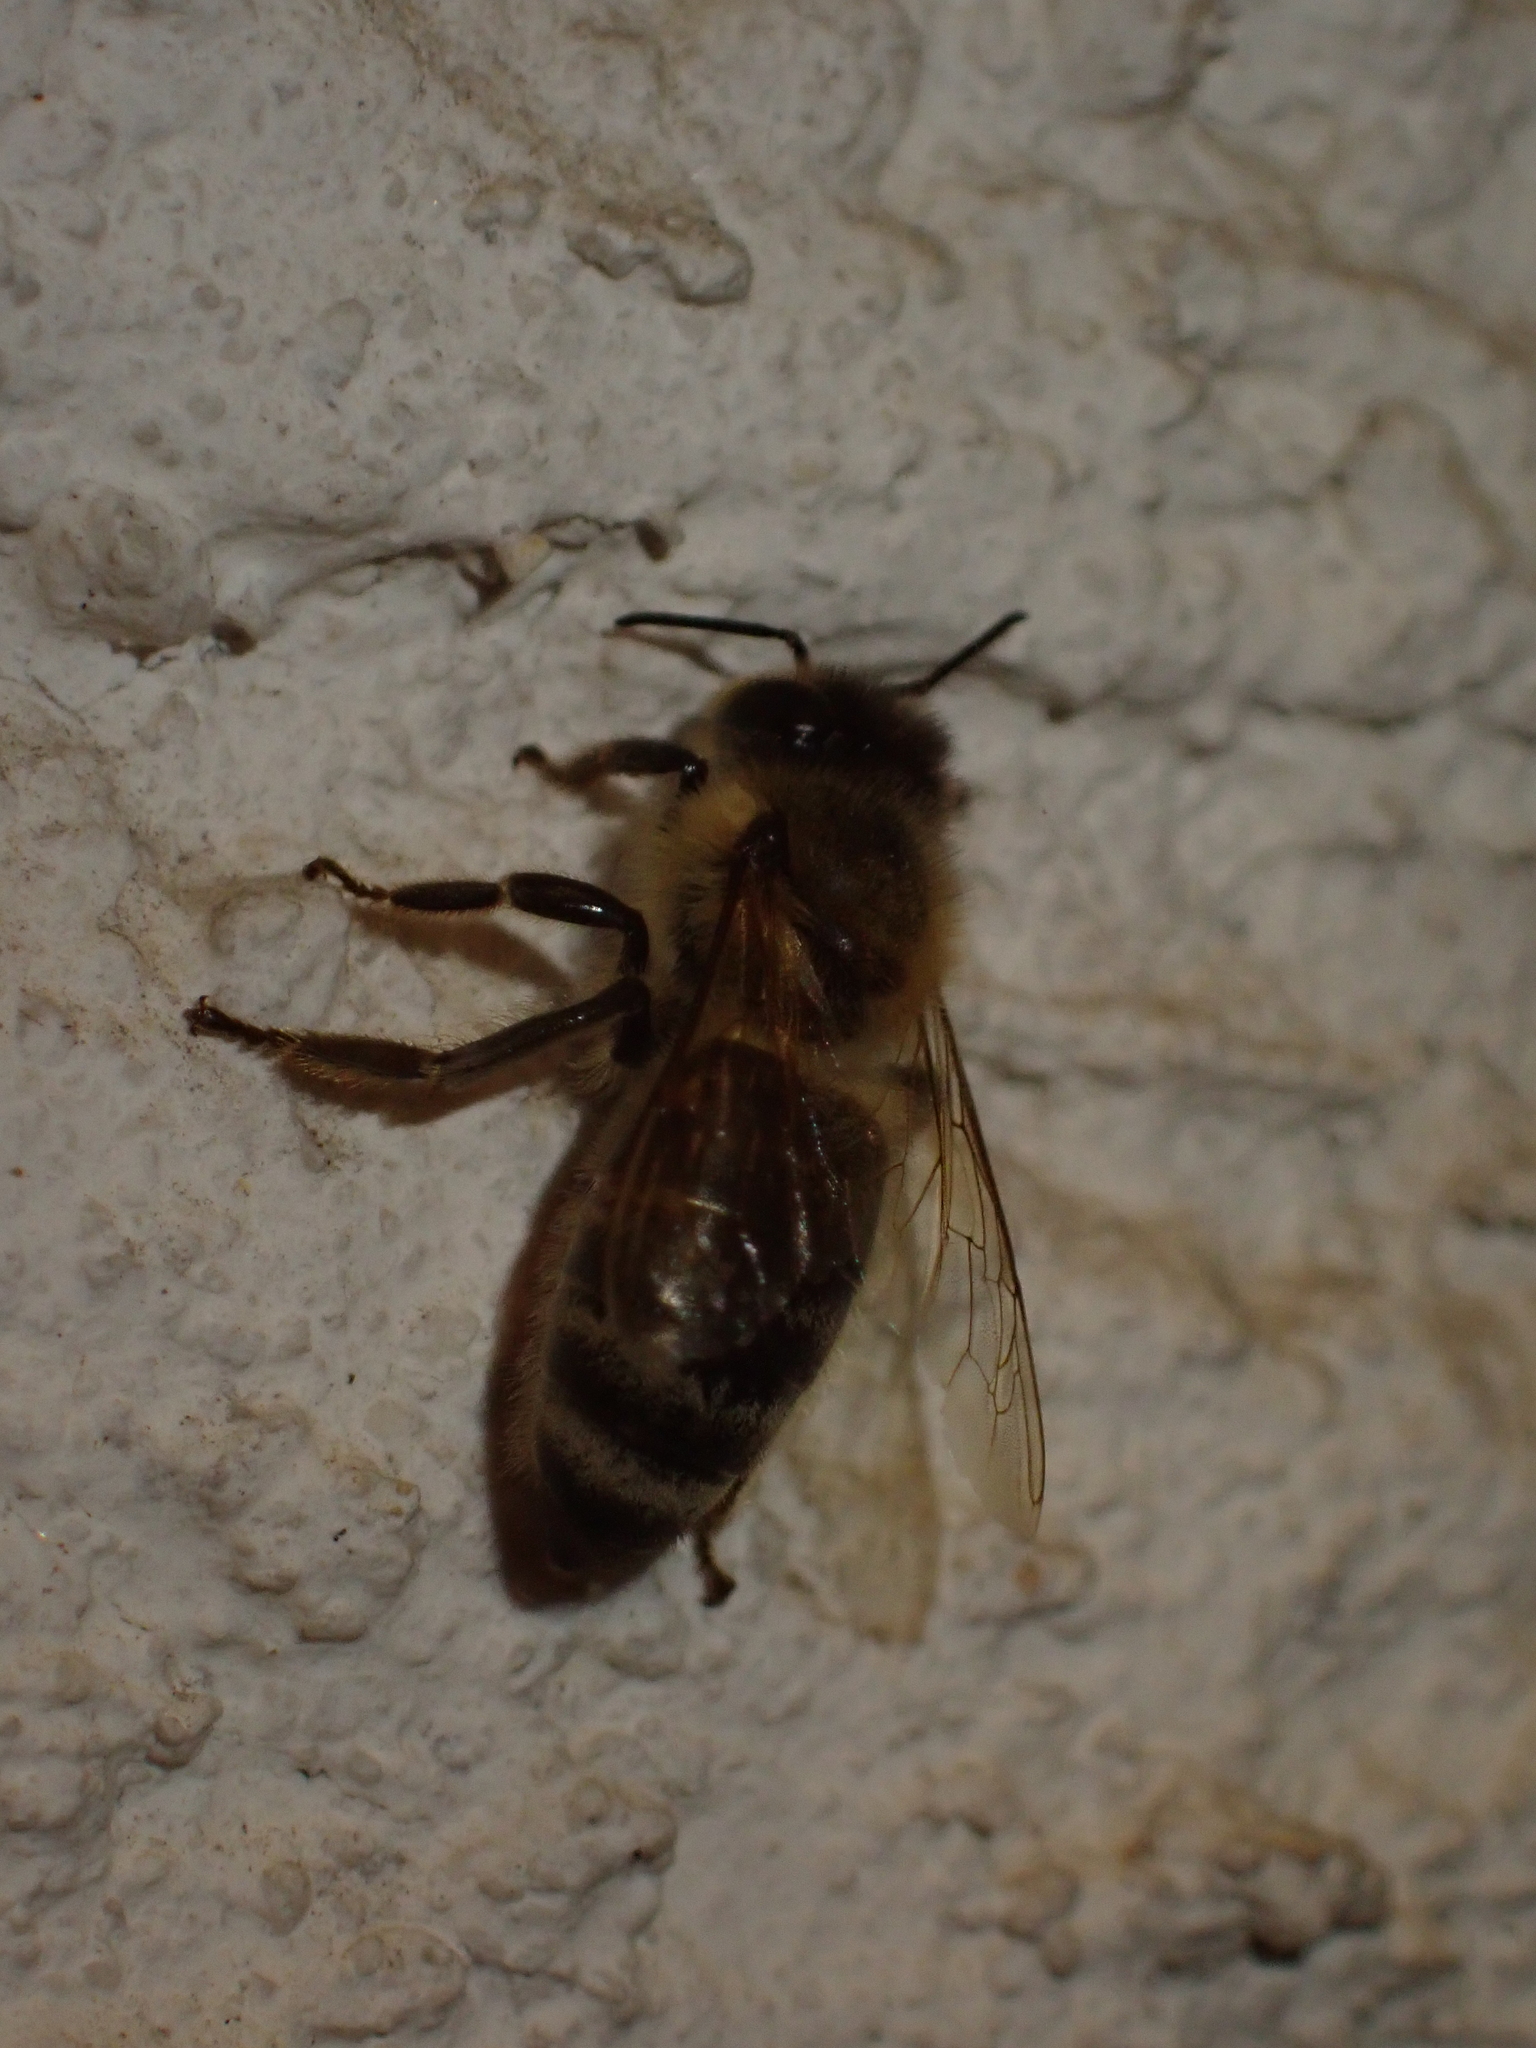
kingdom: Animalia
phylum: Arthropoda
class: Insecta
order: Hymenoptera
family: Apidae
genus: Apis
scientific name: Apis mellifera
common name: Honey bee
